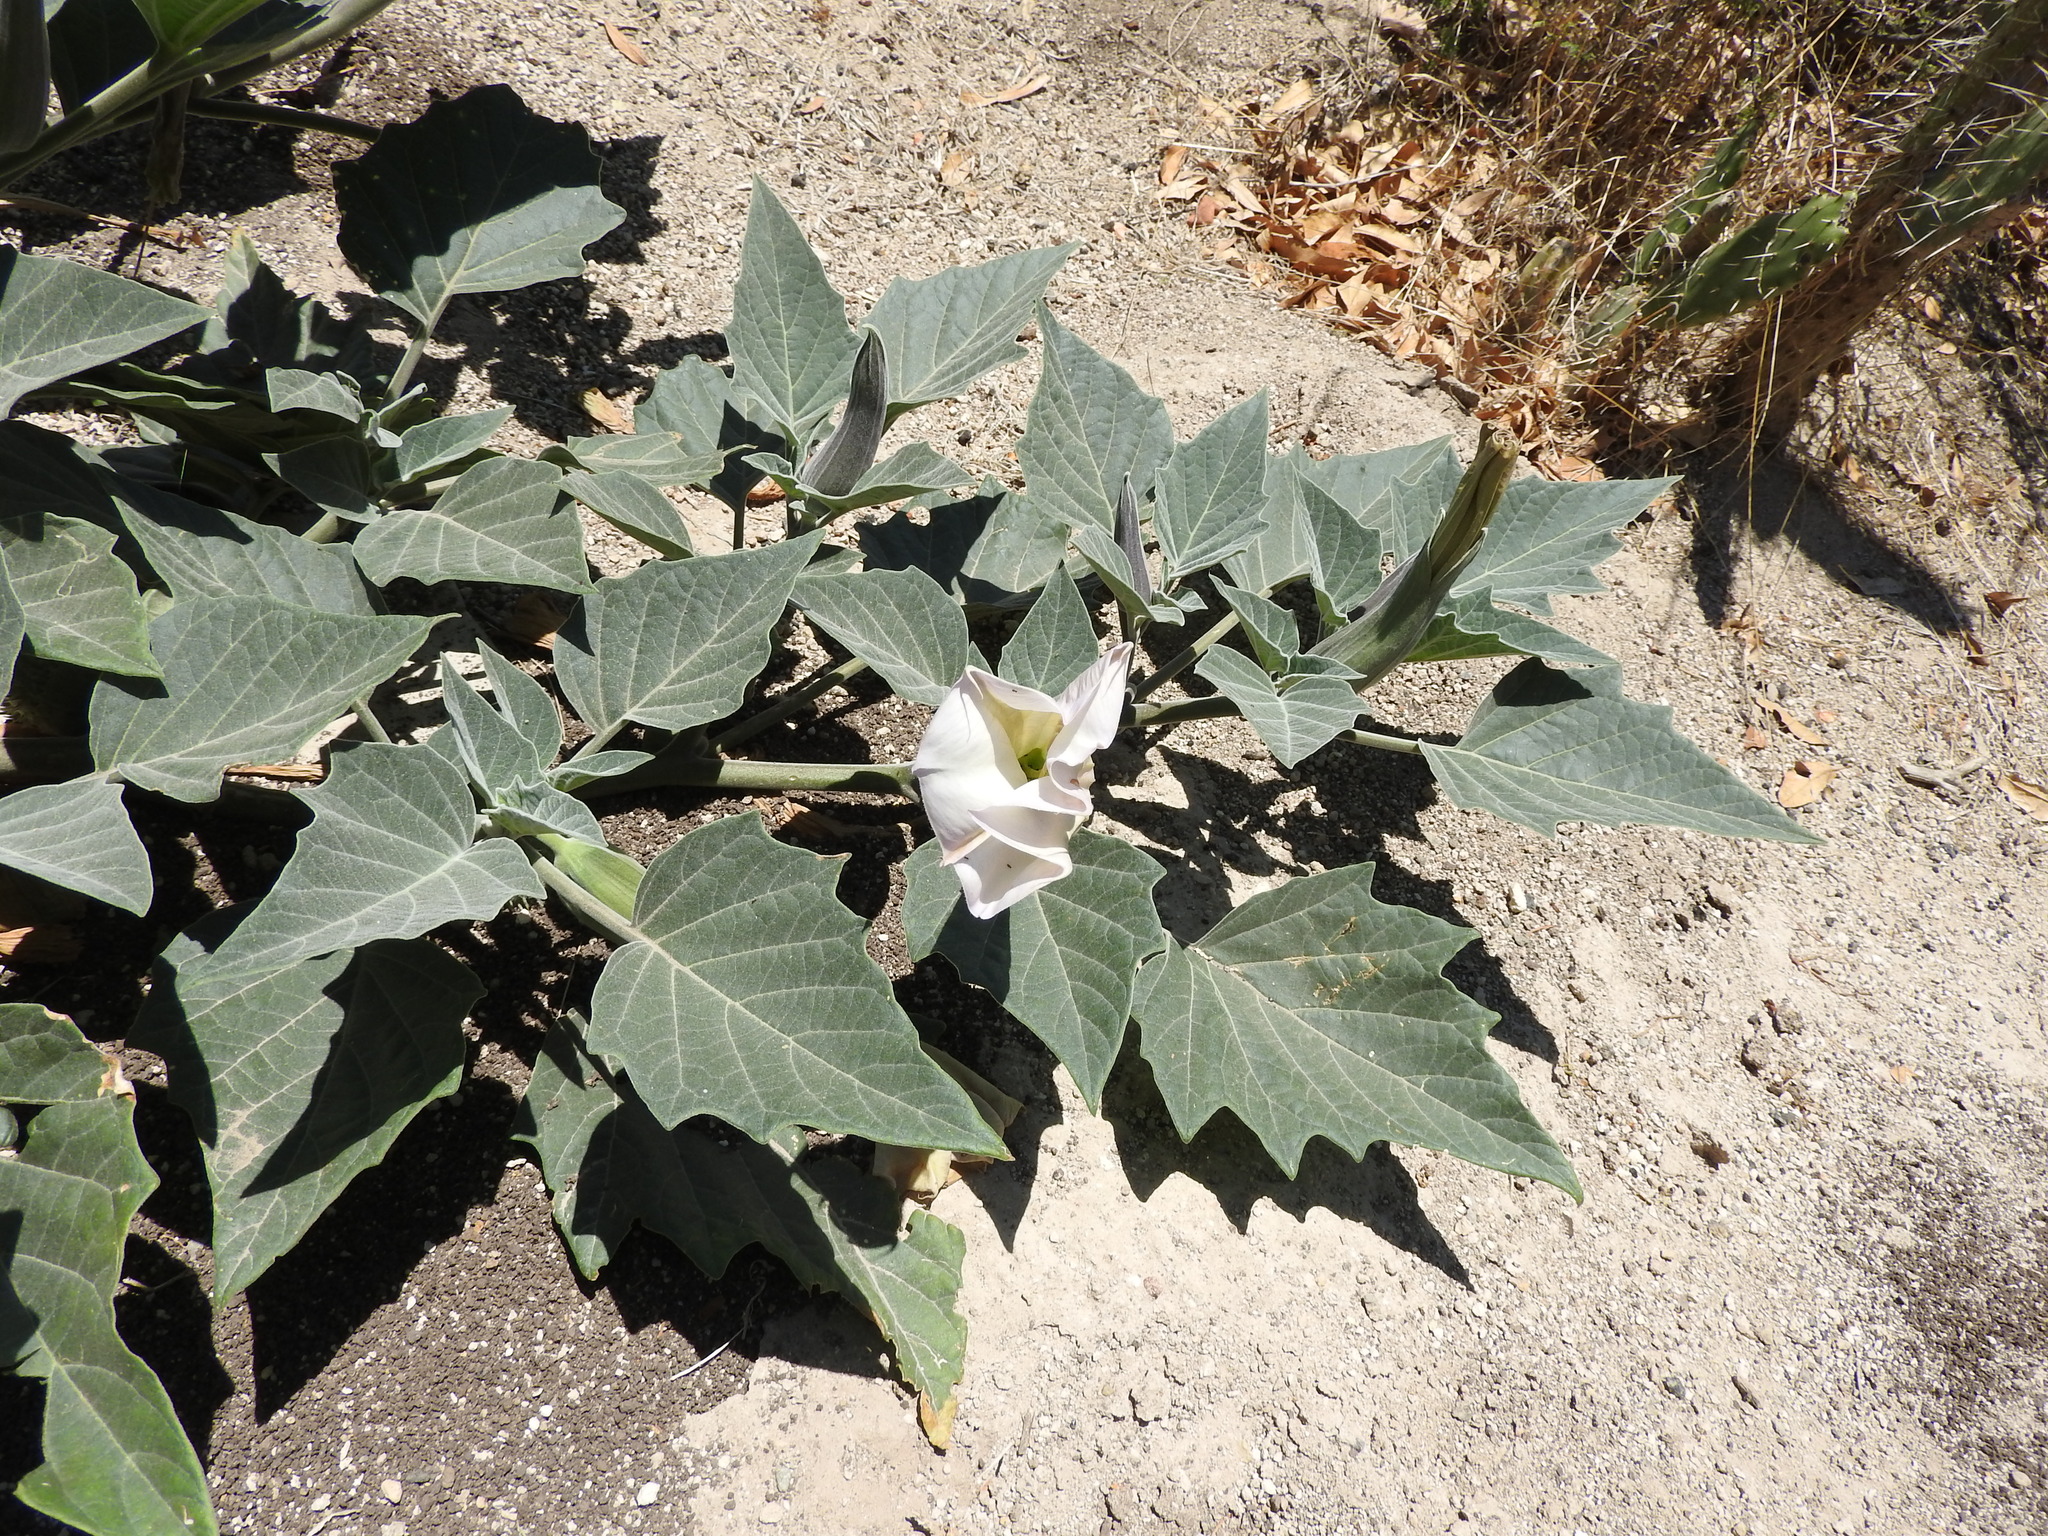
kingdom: Plantae
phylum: Tracheophyta
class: Magnoliopsida
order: Solanales
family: Solanaceae
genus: Datura
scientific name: Datura wrightii
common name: Sacred thorn-apple
